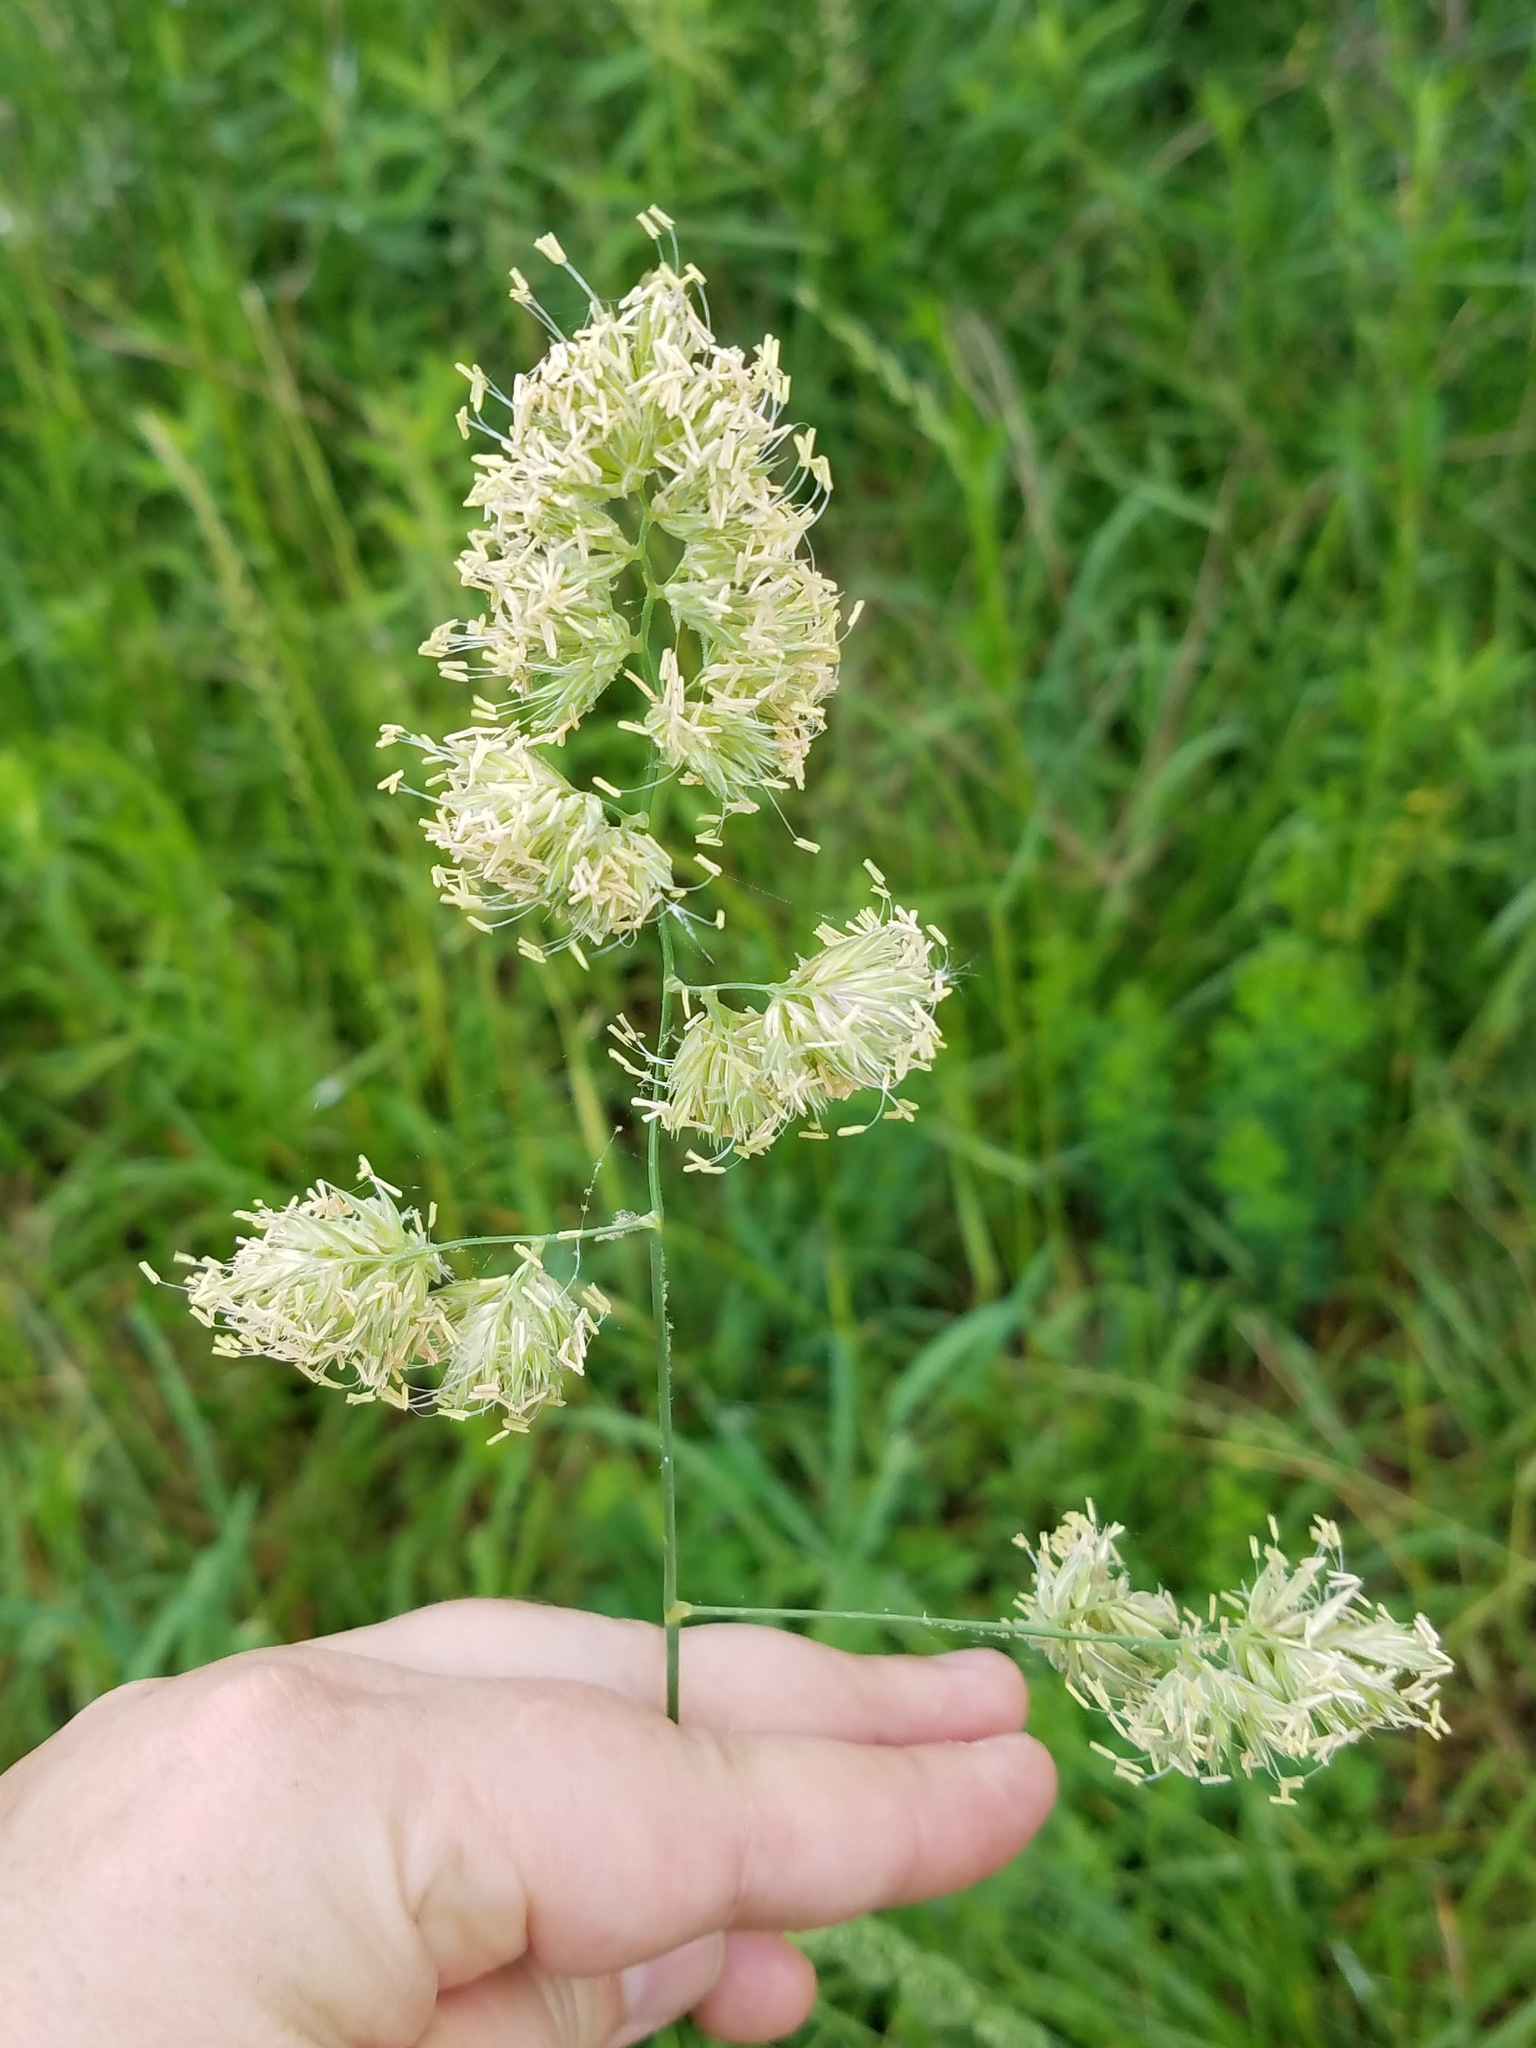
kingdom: Plantae
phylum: Tracheophyta
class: Liliopsida
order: Poales
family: Poaceae
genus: Dactylis
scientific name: Dactylis glomerata
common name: Orchardgrass
